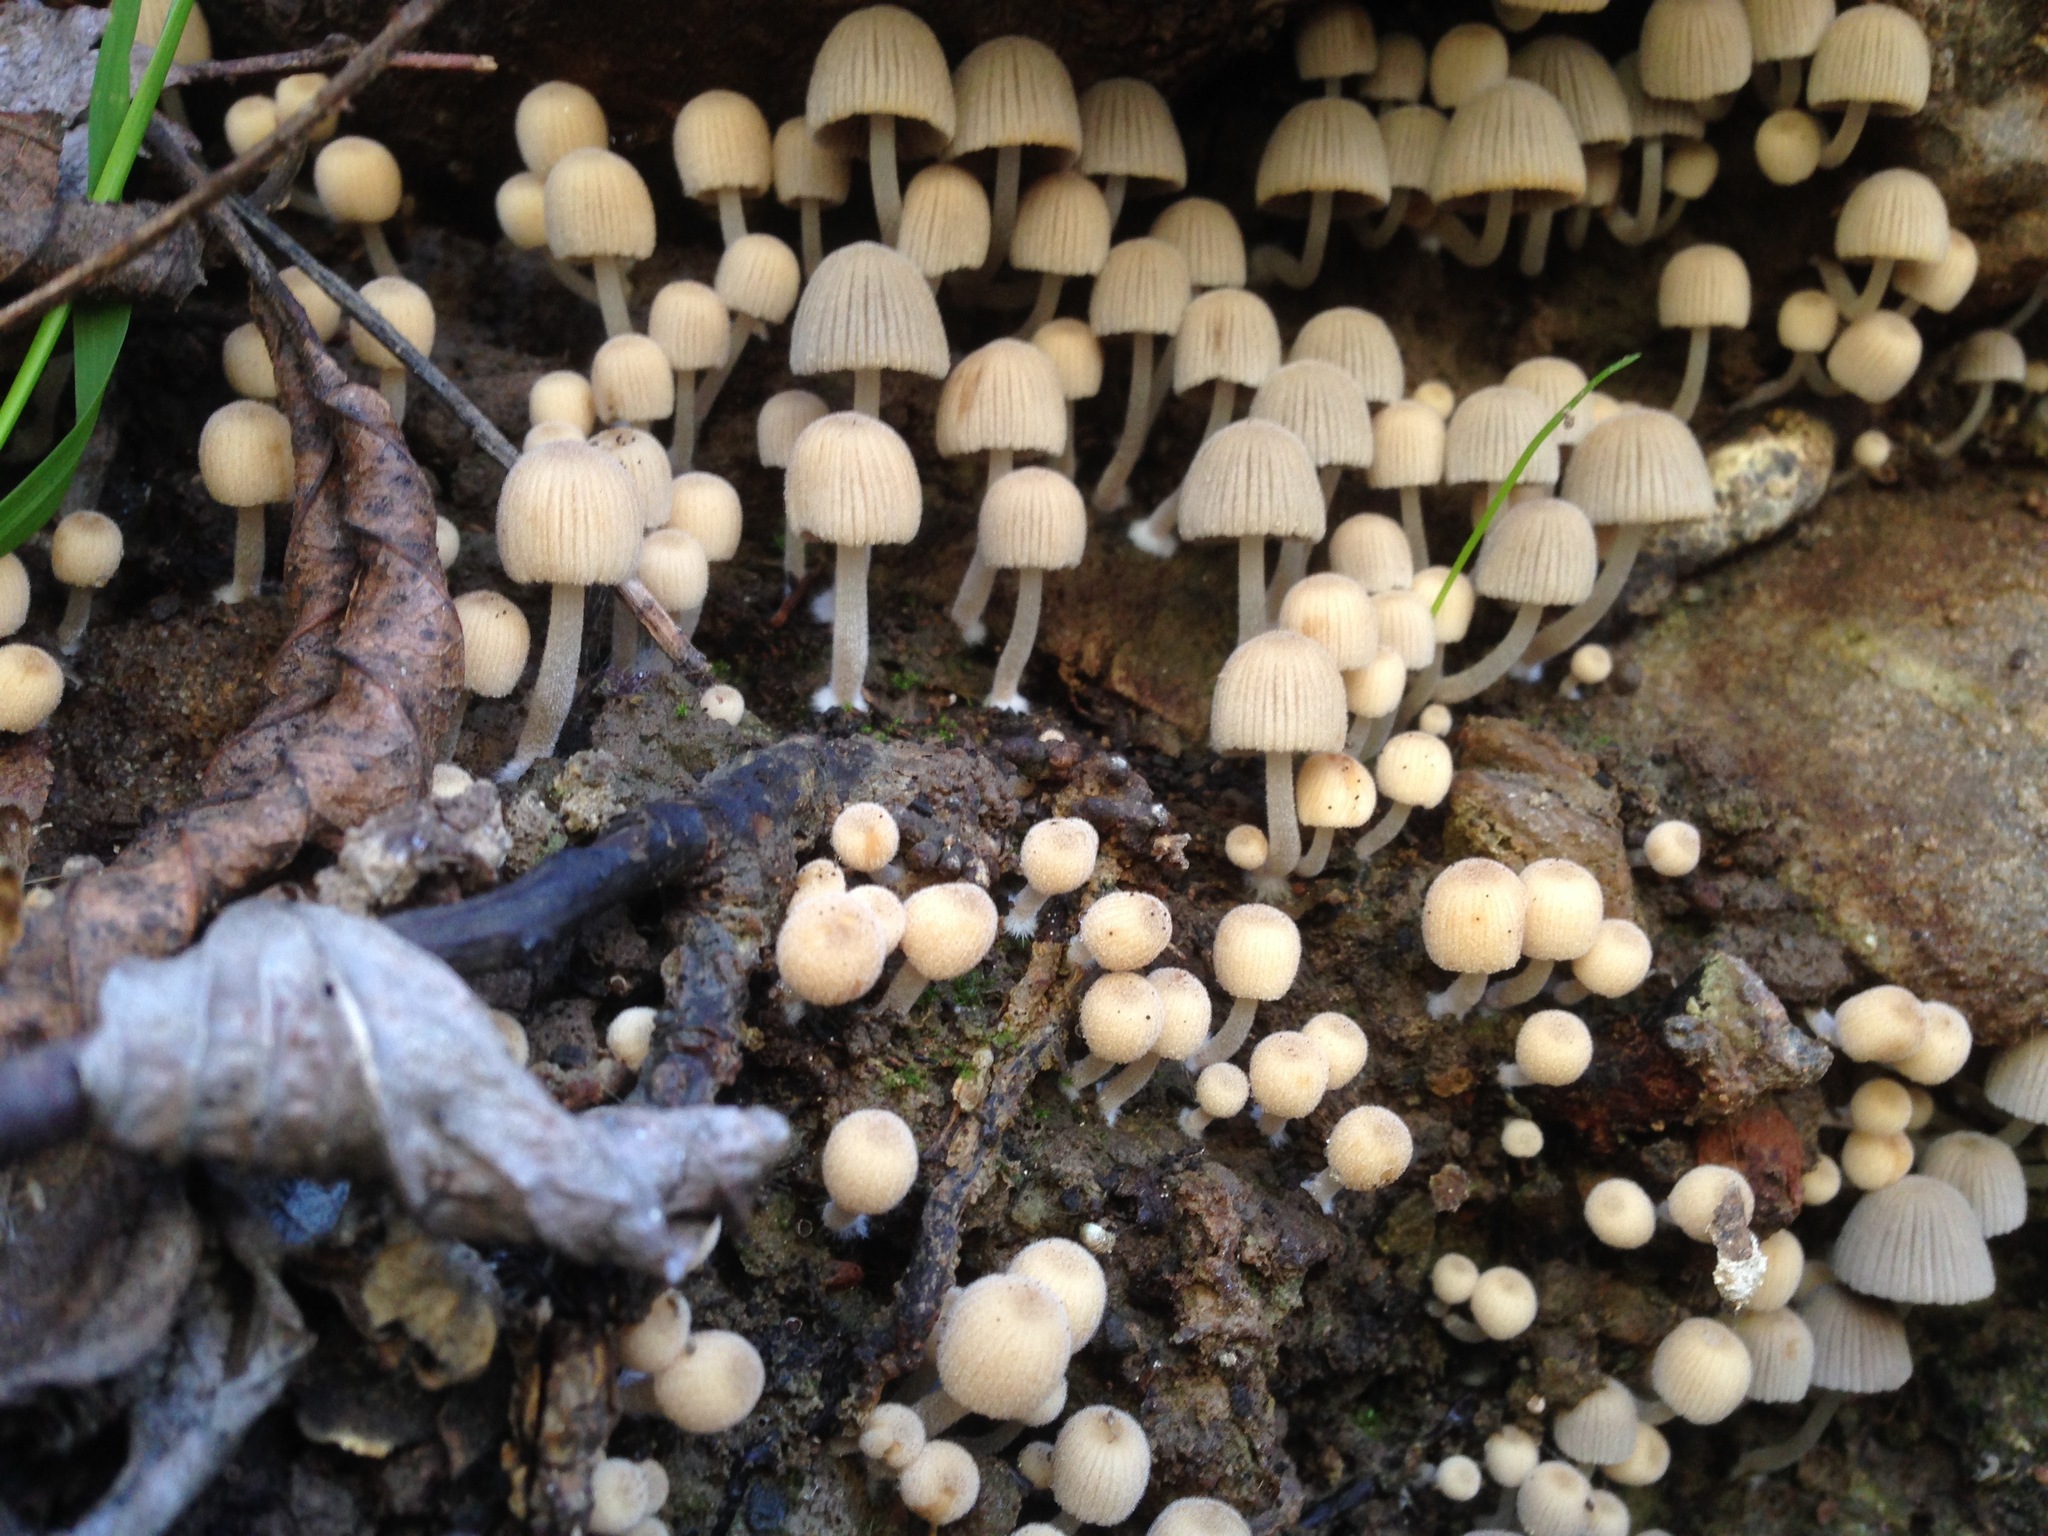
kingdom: Fungi
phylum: Basidiomycota
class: Agaricomycetes
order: Agaricales
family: Psathyrellaceae
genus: Coprinellus
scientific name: Coprinellus disseminatus
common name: Fairies' bonnets
